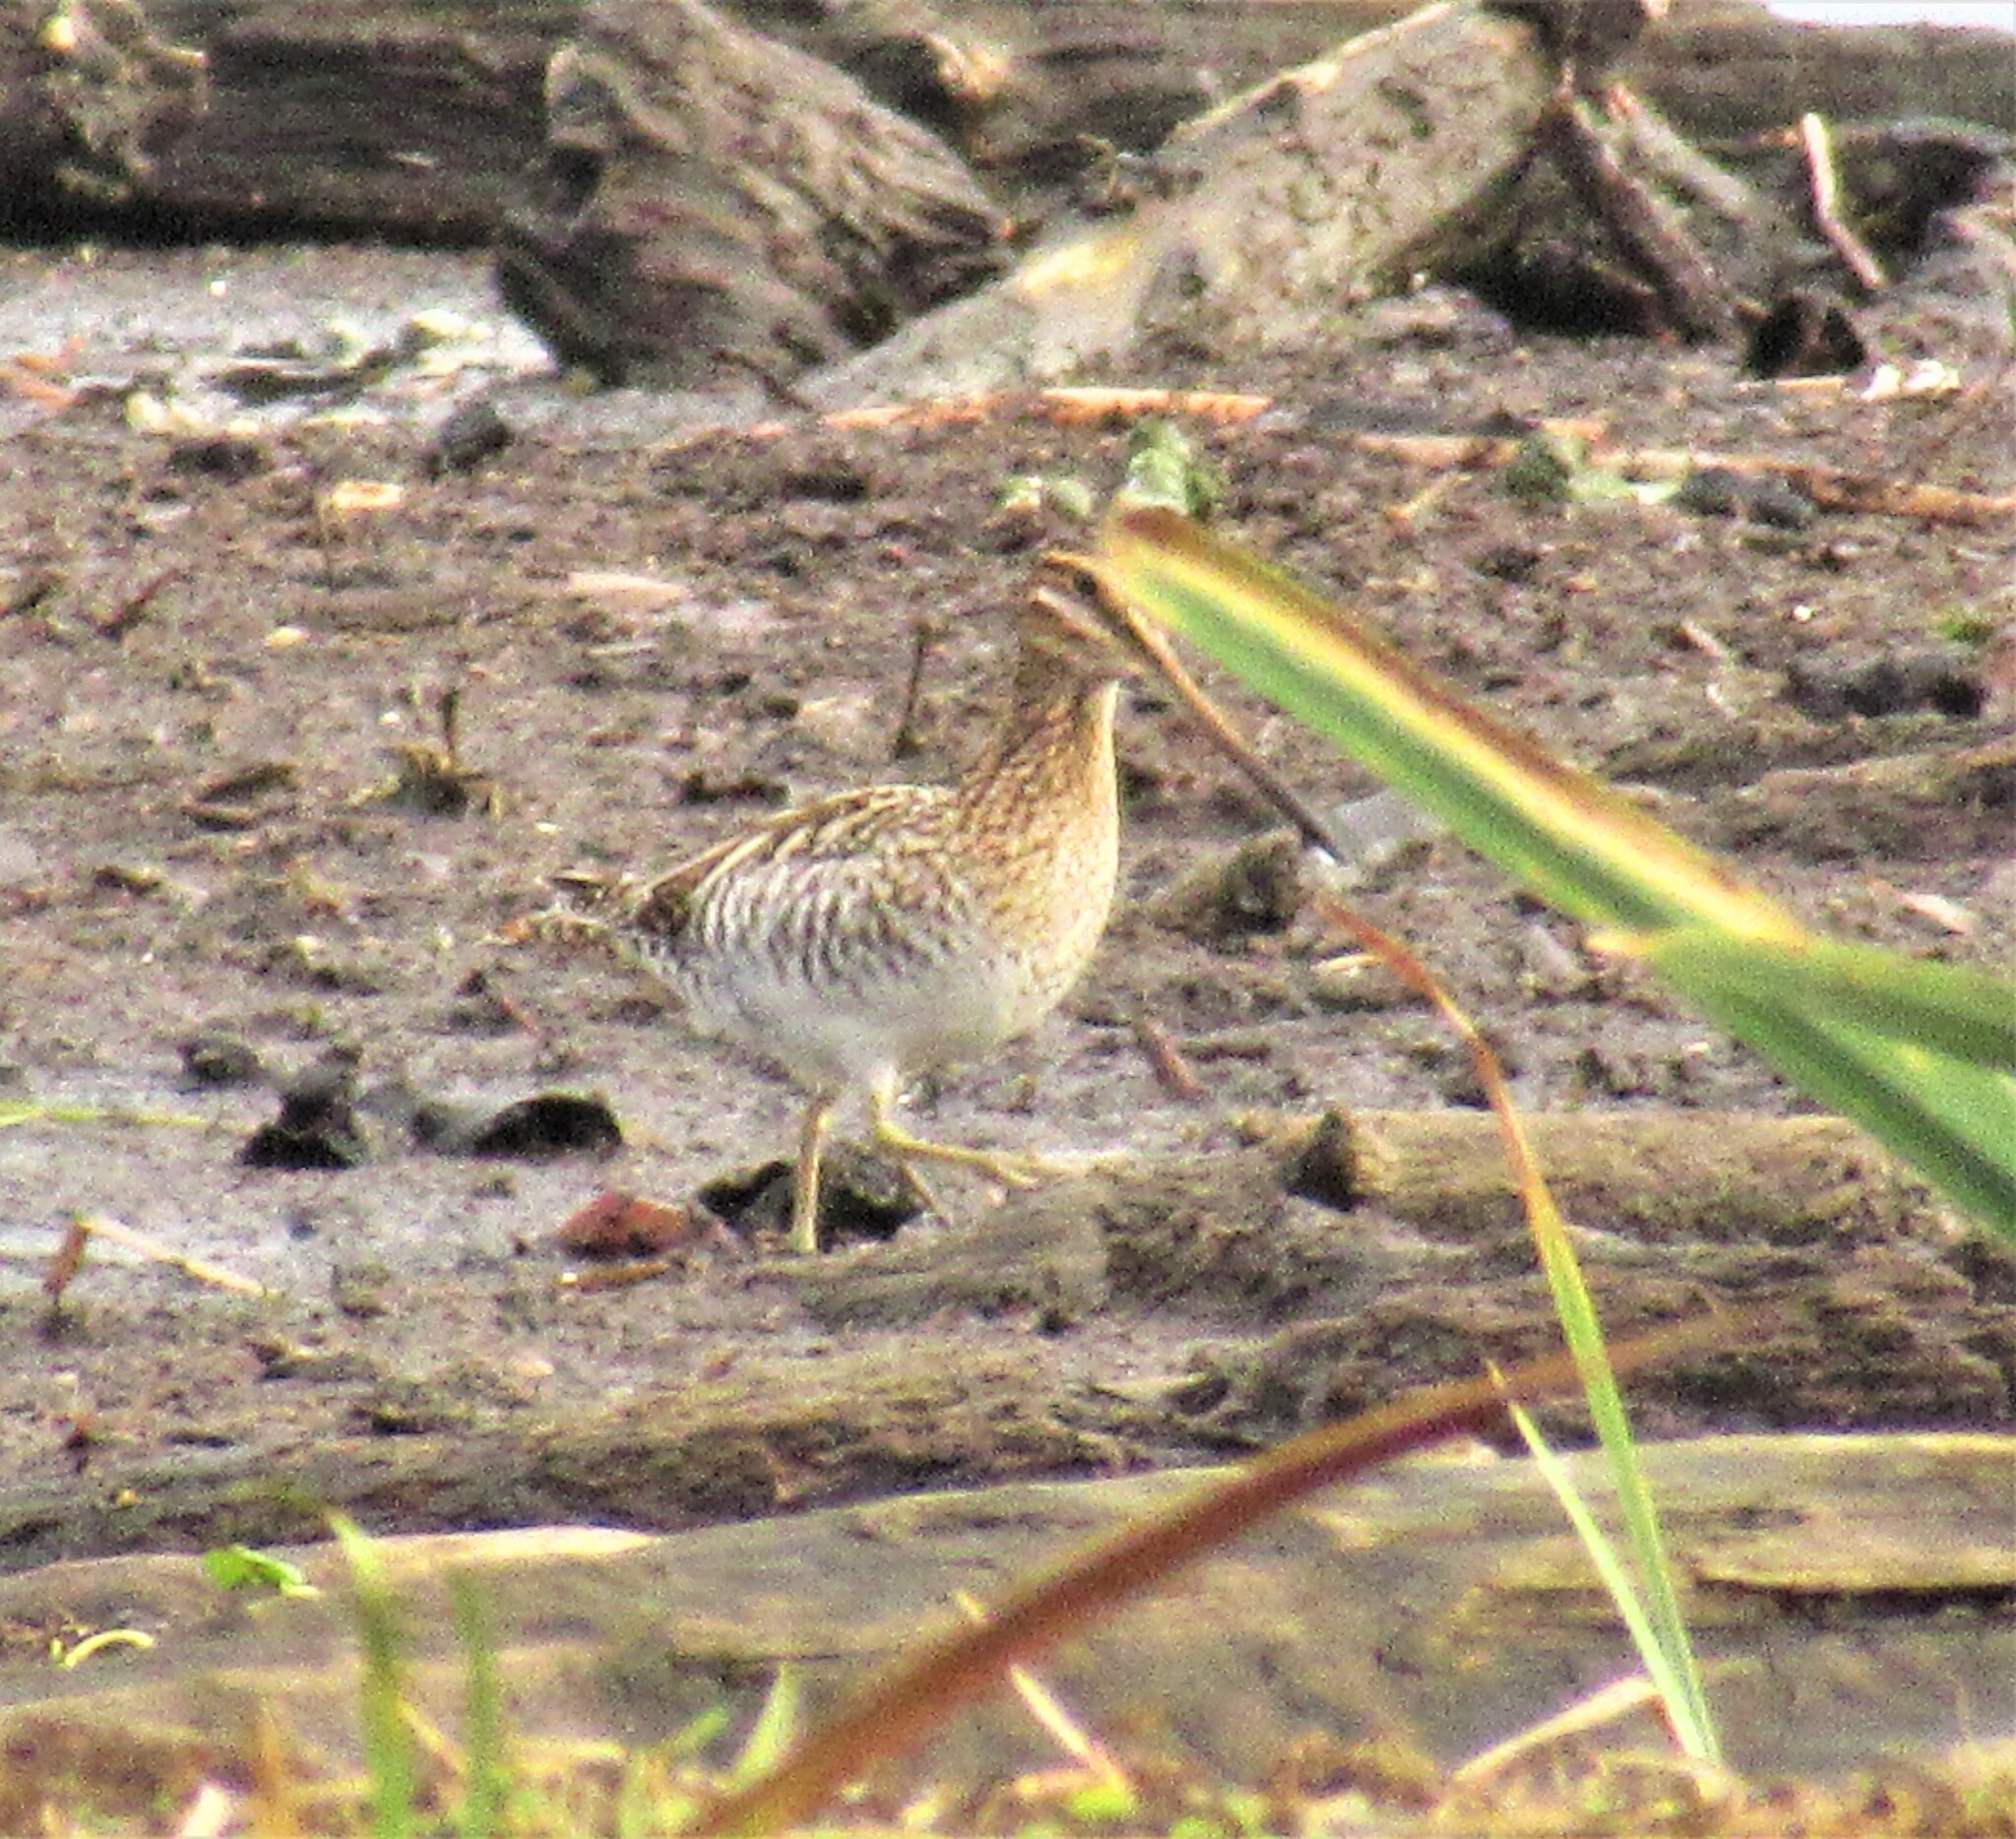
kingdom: Animalia
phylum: Chordata
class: Aves
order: Charadriiformes
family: Scolopacidae
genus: Gallinago
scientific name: Gallinago delicata
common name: Wilson's snipe
